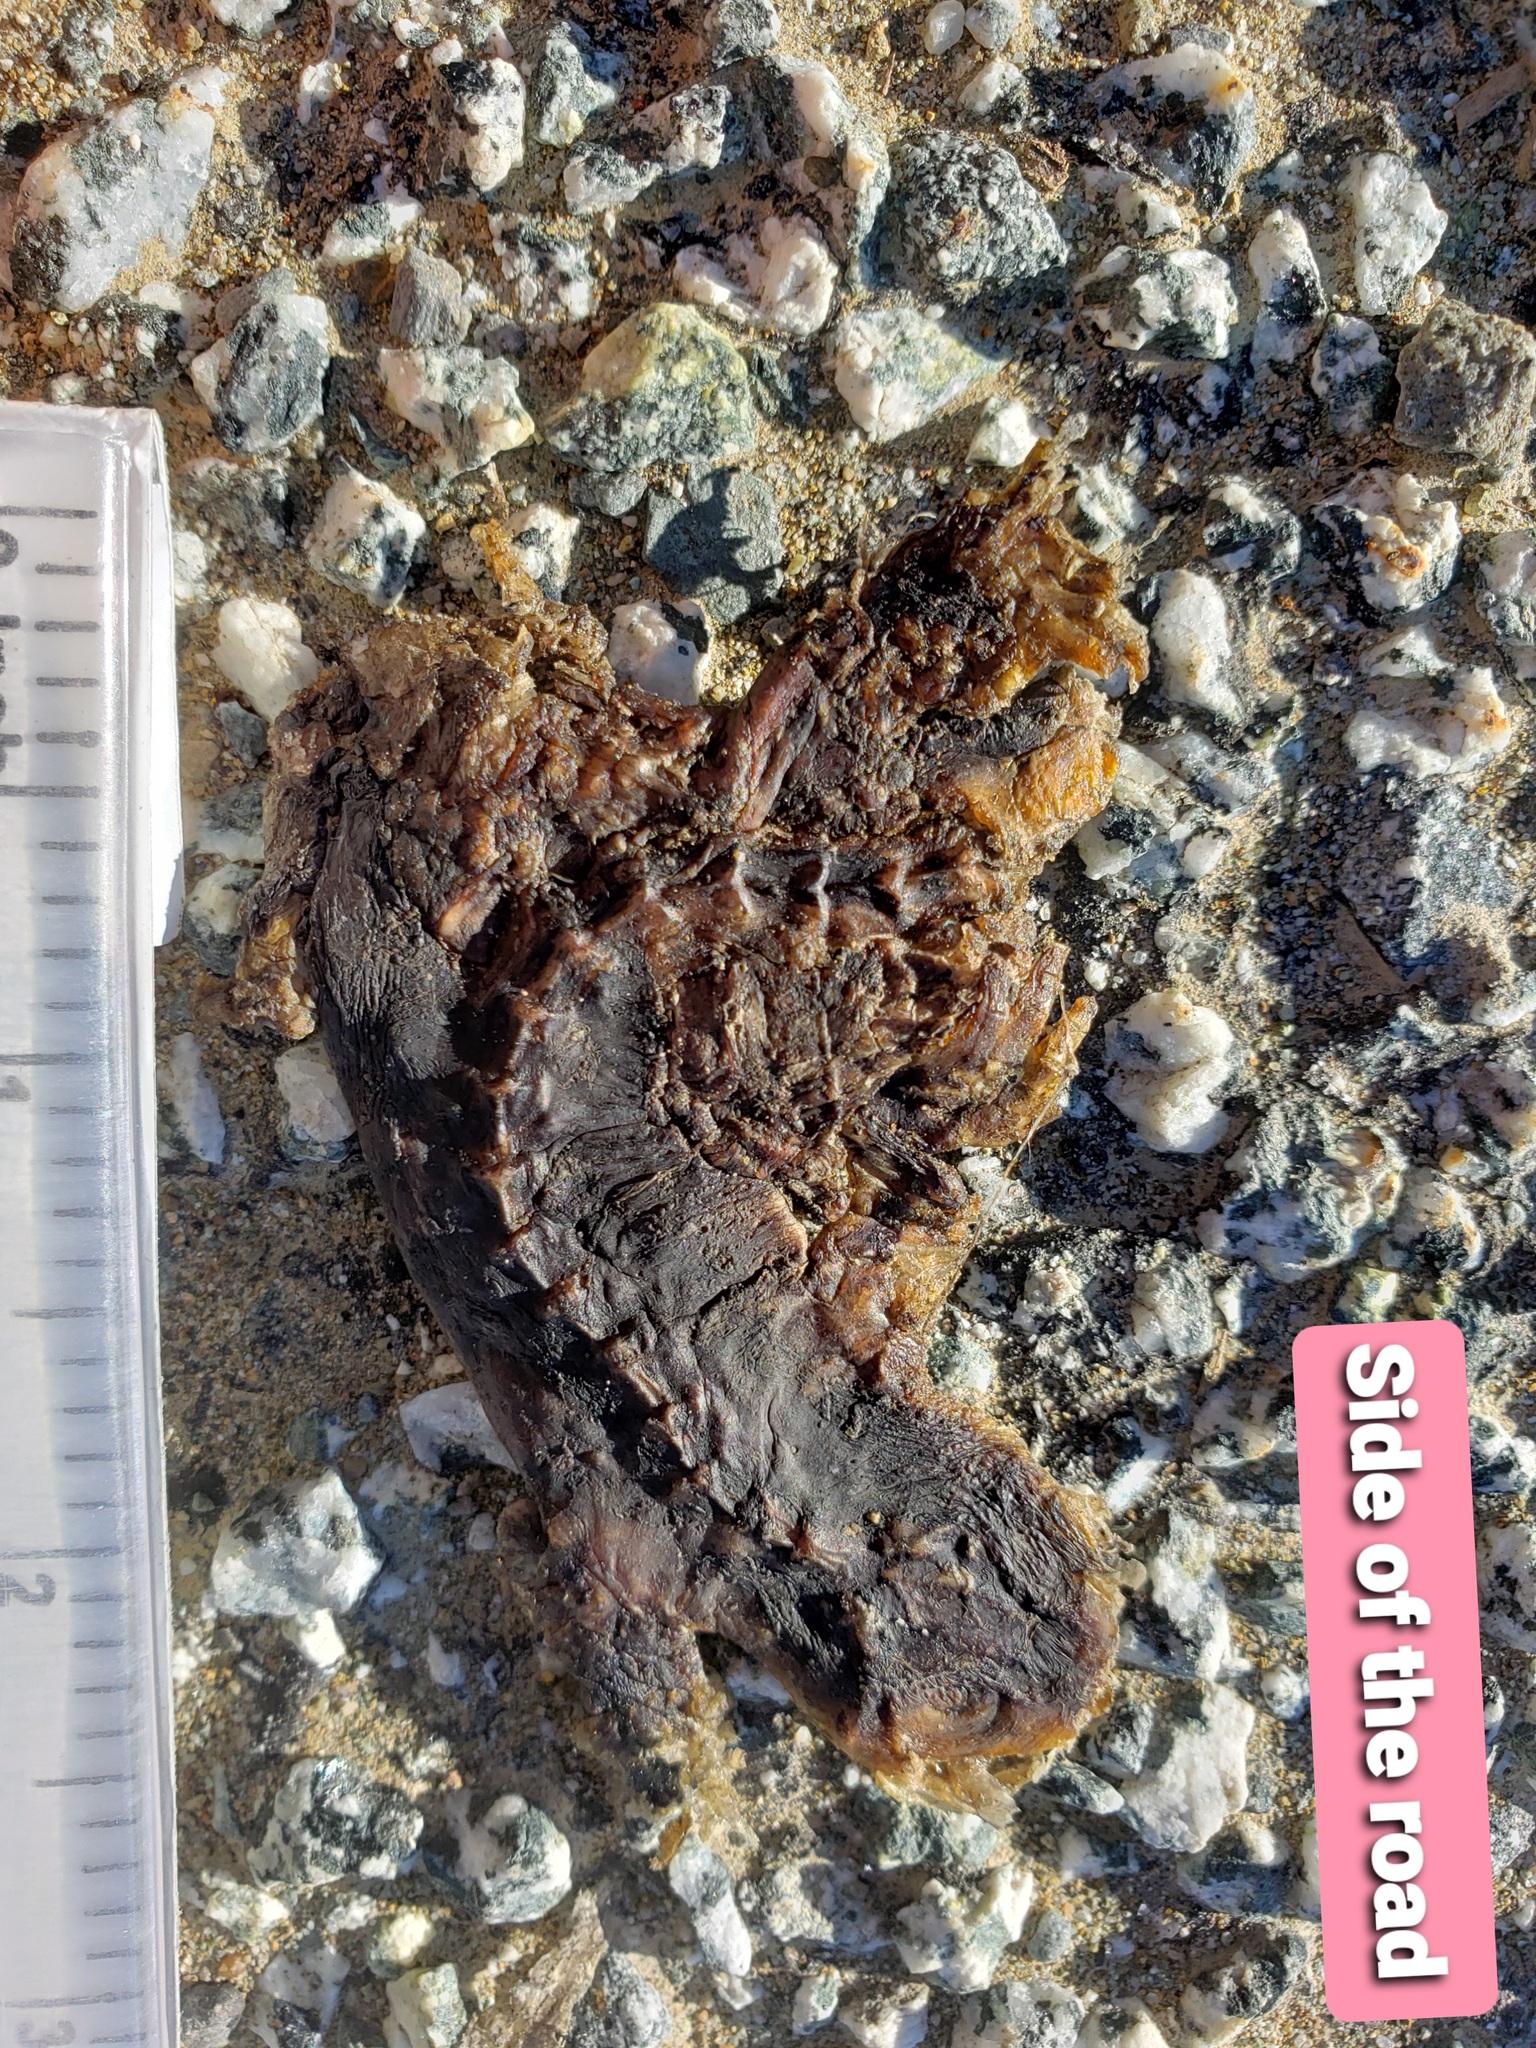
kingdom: Animalia
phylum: Chordata
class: Amphibia
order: Caudata
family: Salamandridae
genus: Taricha
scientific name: Taricha
